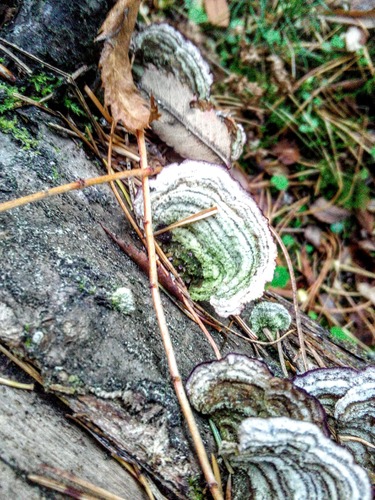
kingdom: Fungi
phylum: Basidiomycota
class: Agaricomycetes
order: Hymenochaetales
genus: Trichaptum
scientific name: Trichaptum fuscoviolaceum
